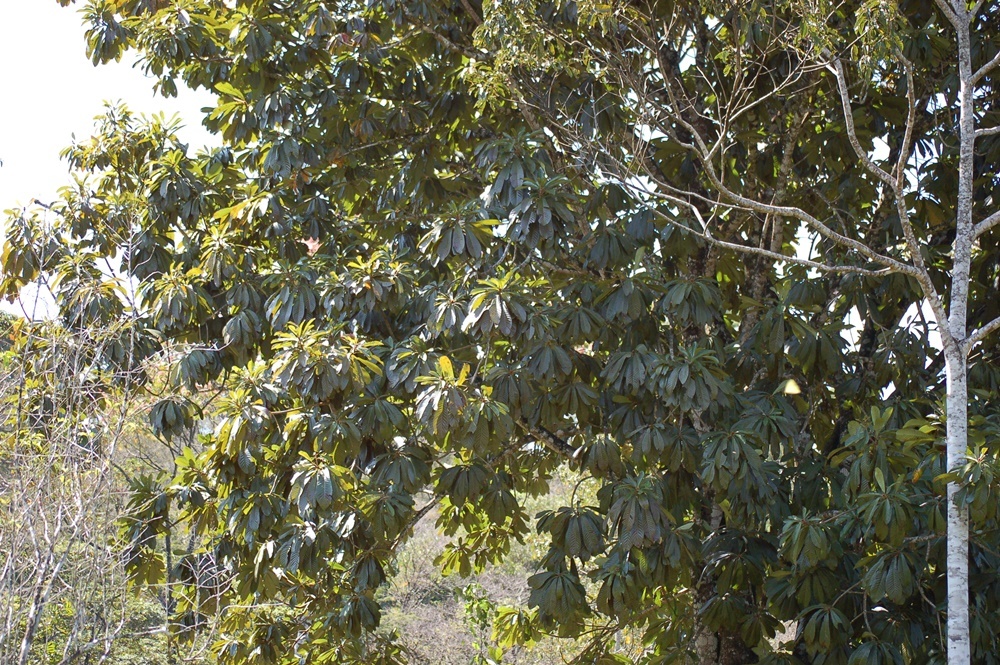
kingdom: Plantae
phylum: Tracheophyta
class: Magnoliopsida
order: Ericales
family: Sapotaceae
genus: Pouteria
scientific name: Pouteria sapota
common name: Mamey
